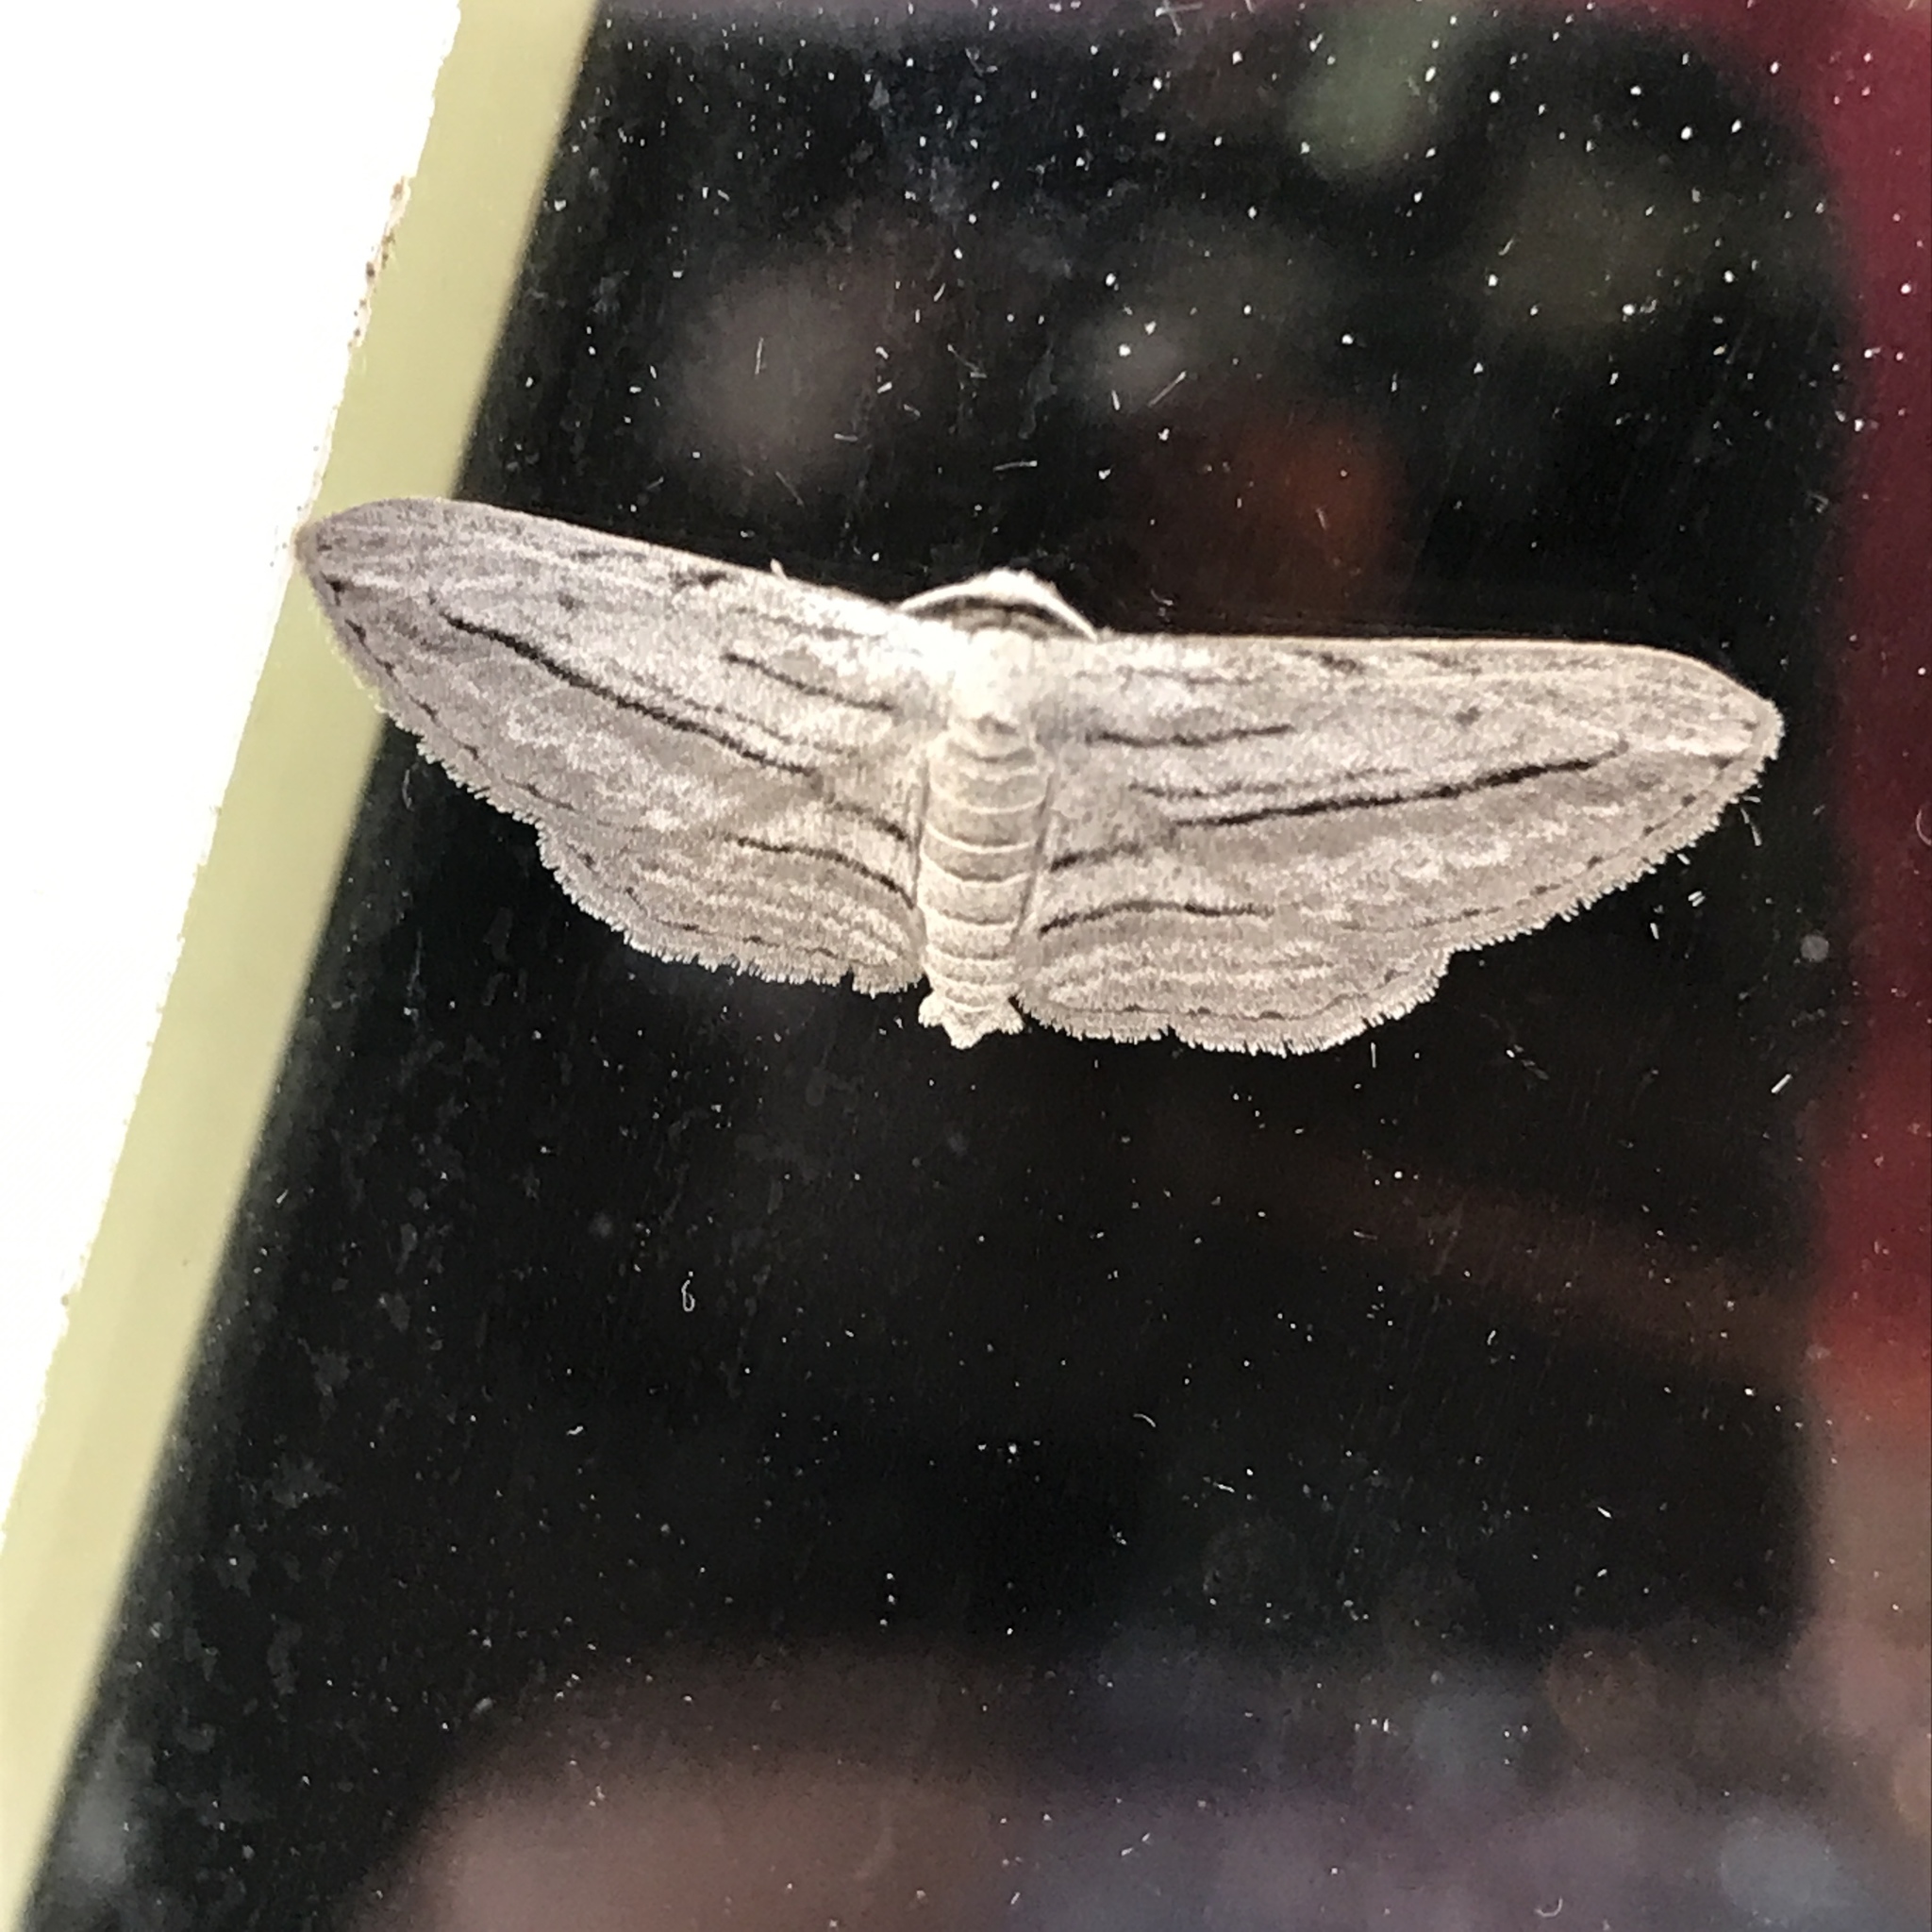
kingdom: Animalia
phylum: Arthropoda
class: Insecta
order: Lepidoptera
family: Geometridae
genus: Glena
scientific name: Glena quinquelinearia
